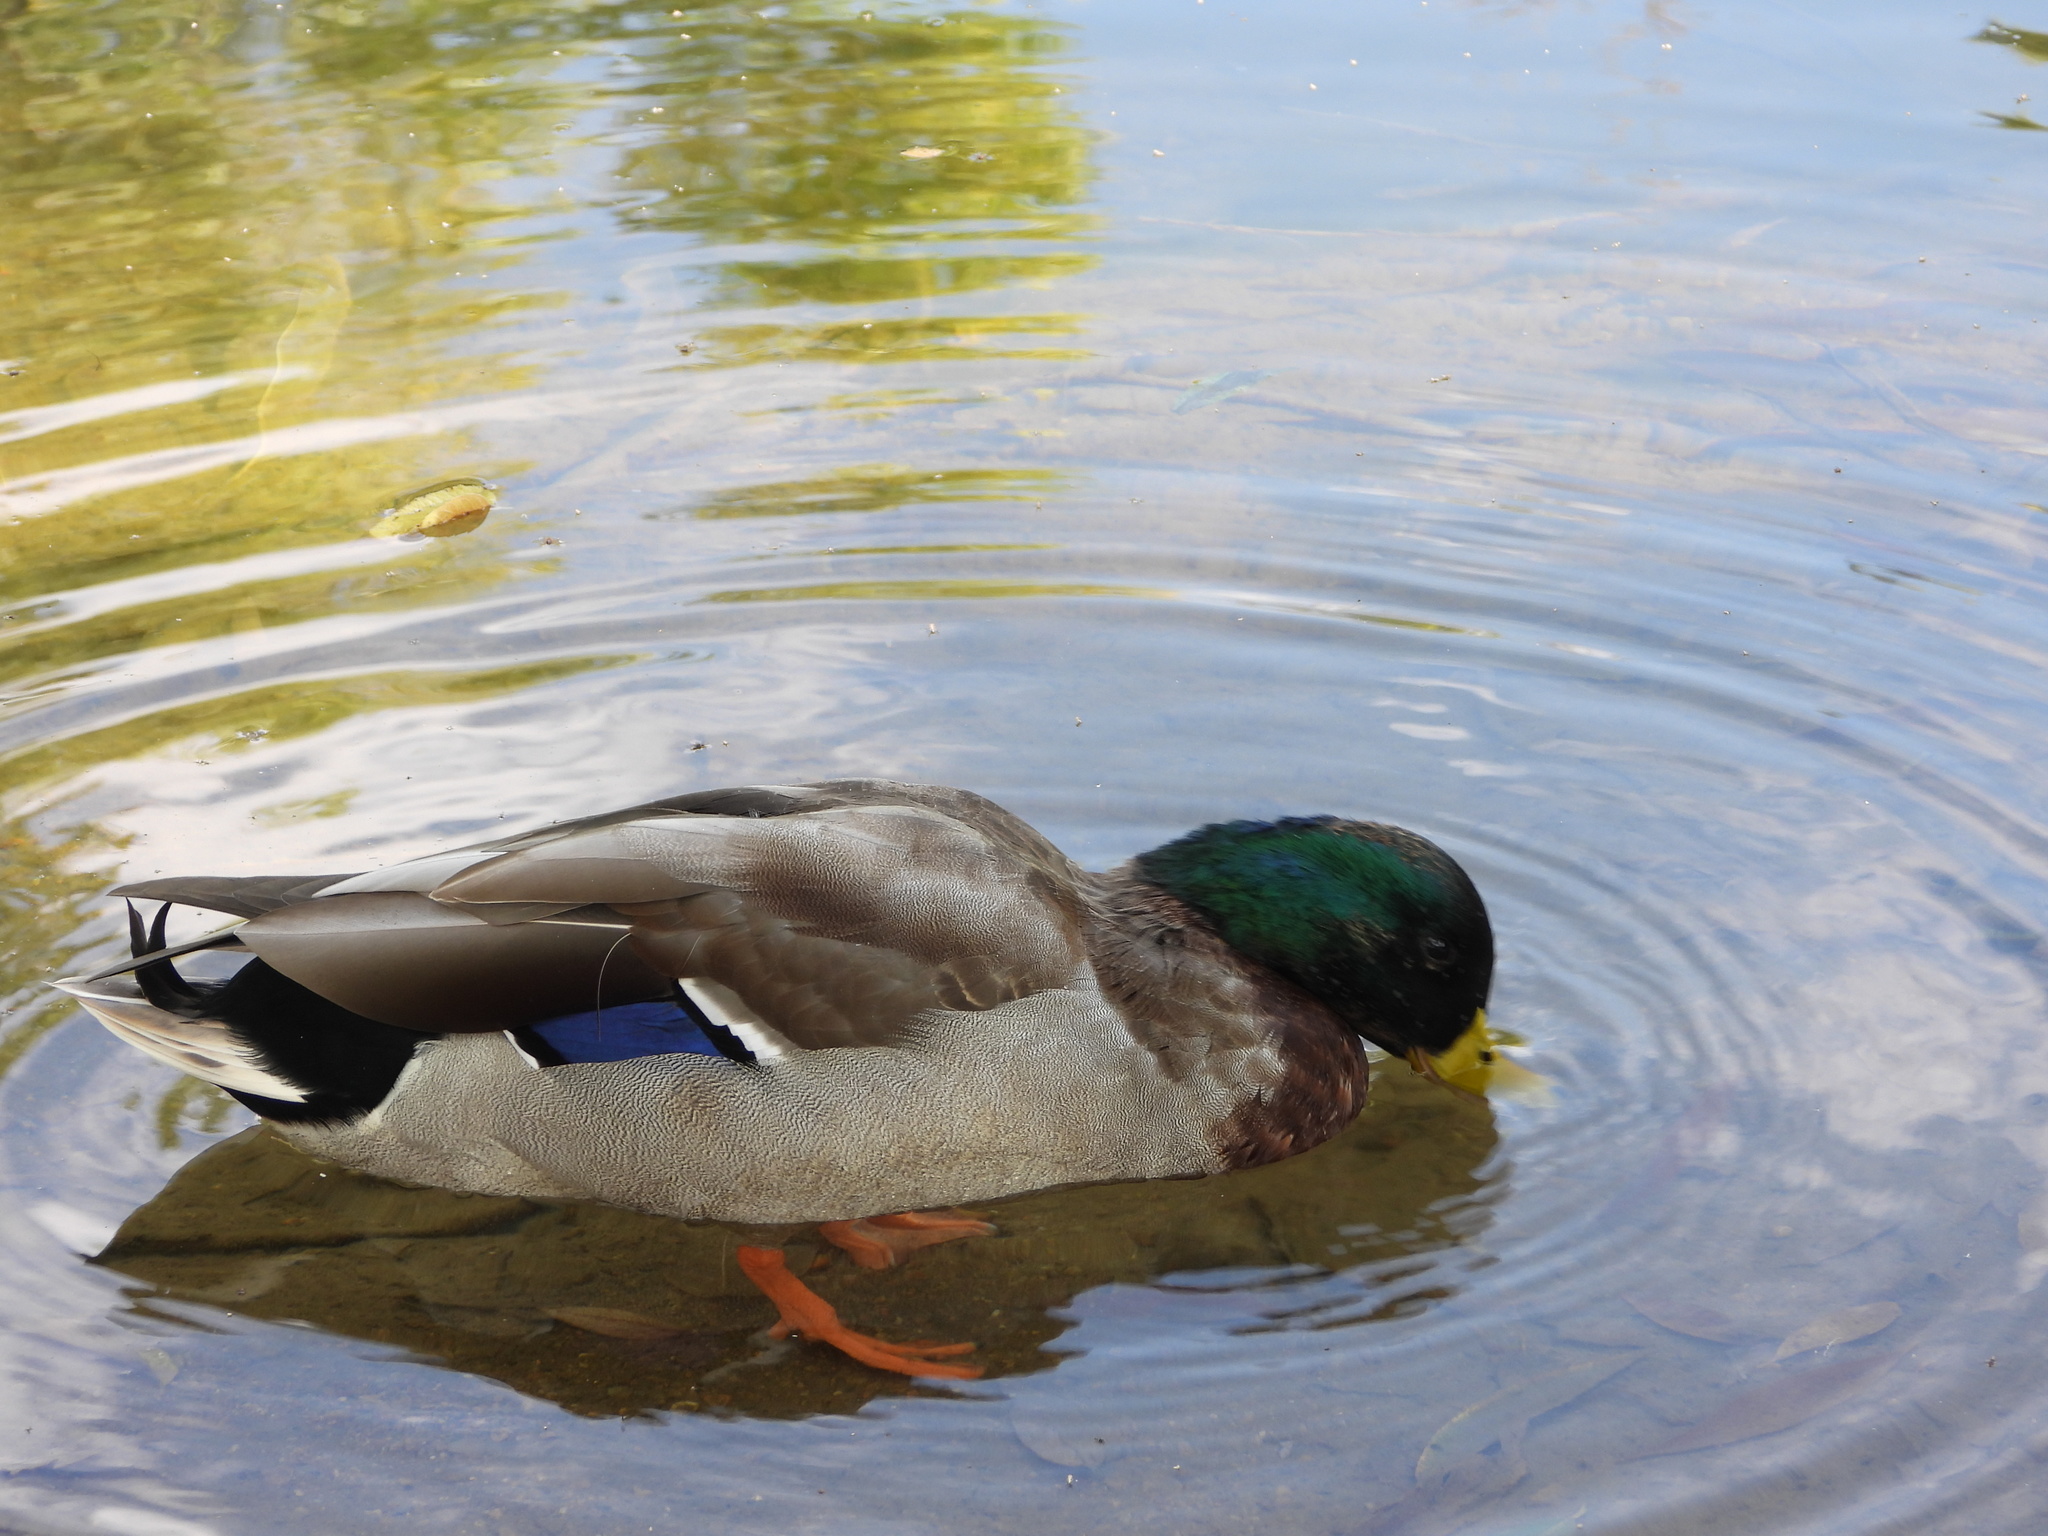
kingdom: Animalia
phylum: Chordata
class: Aves
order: Anseriformes
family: Anatidae
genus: Anas
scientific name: Anas platyrhynchos
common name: Mallard
